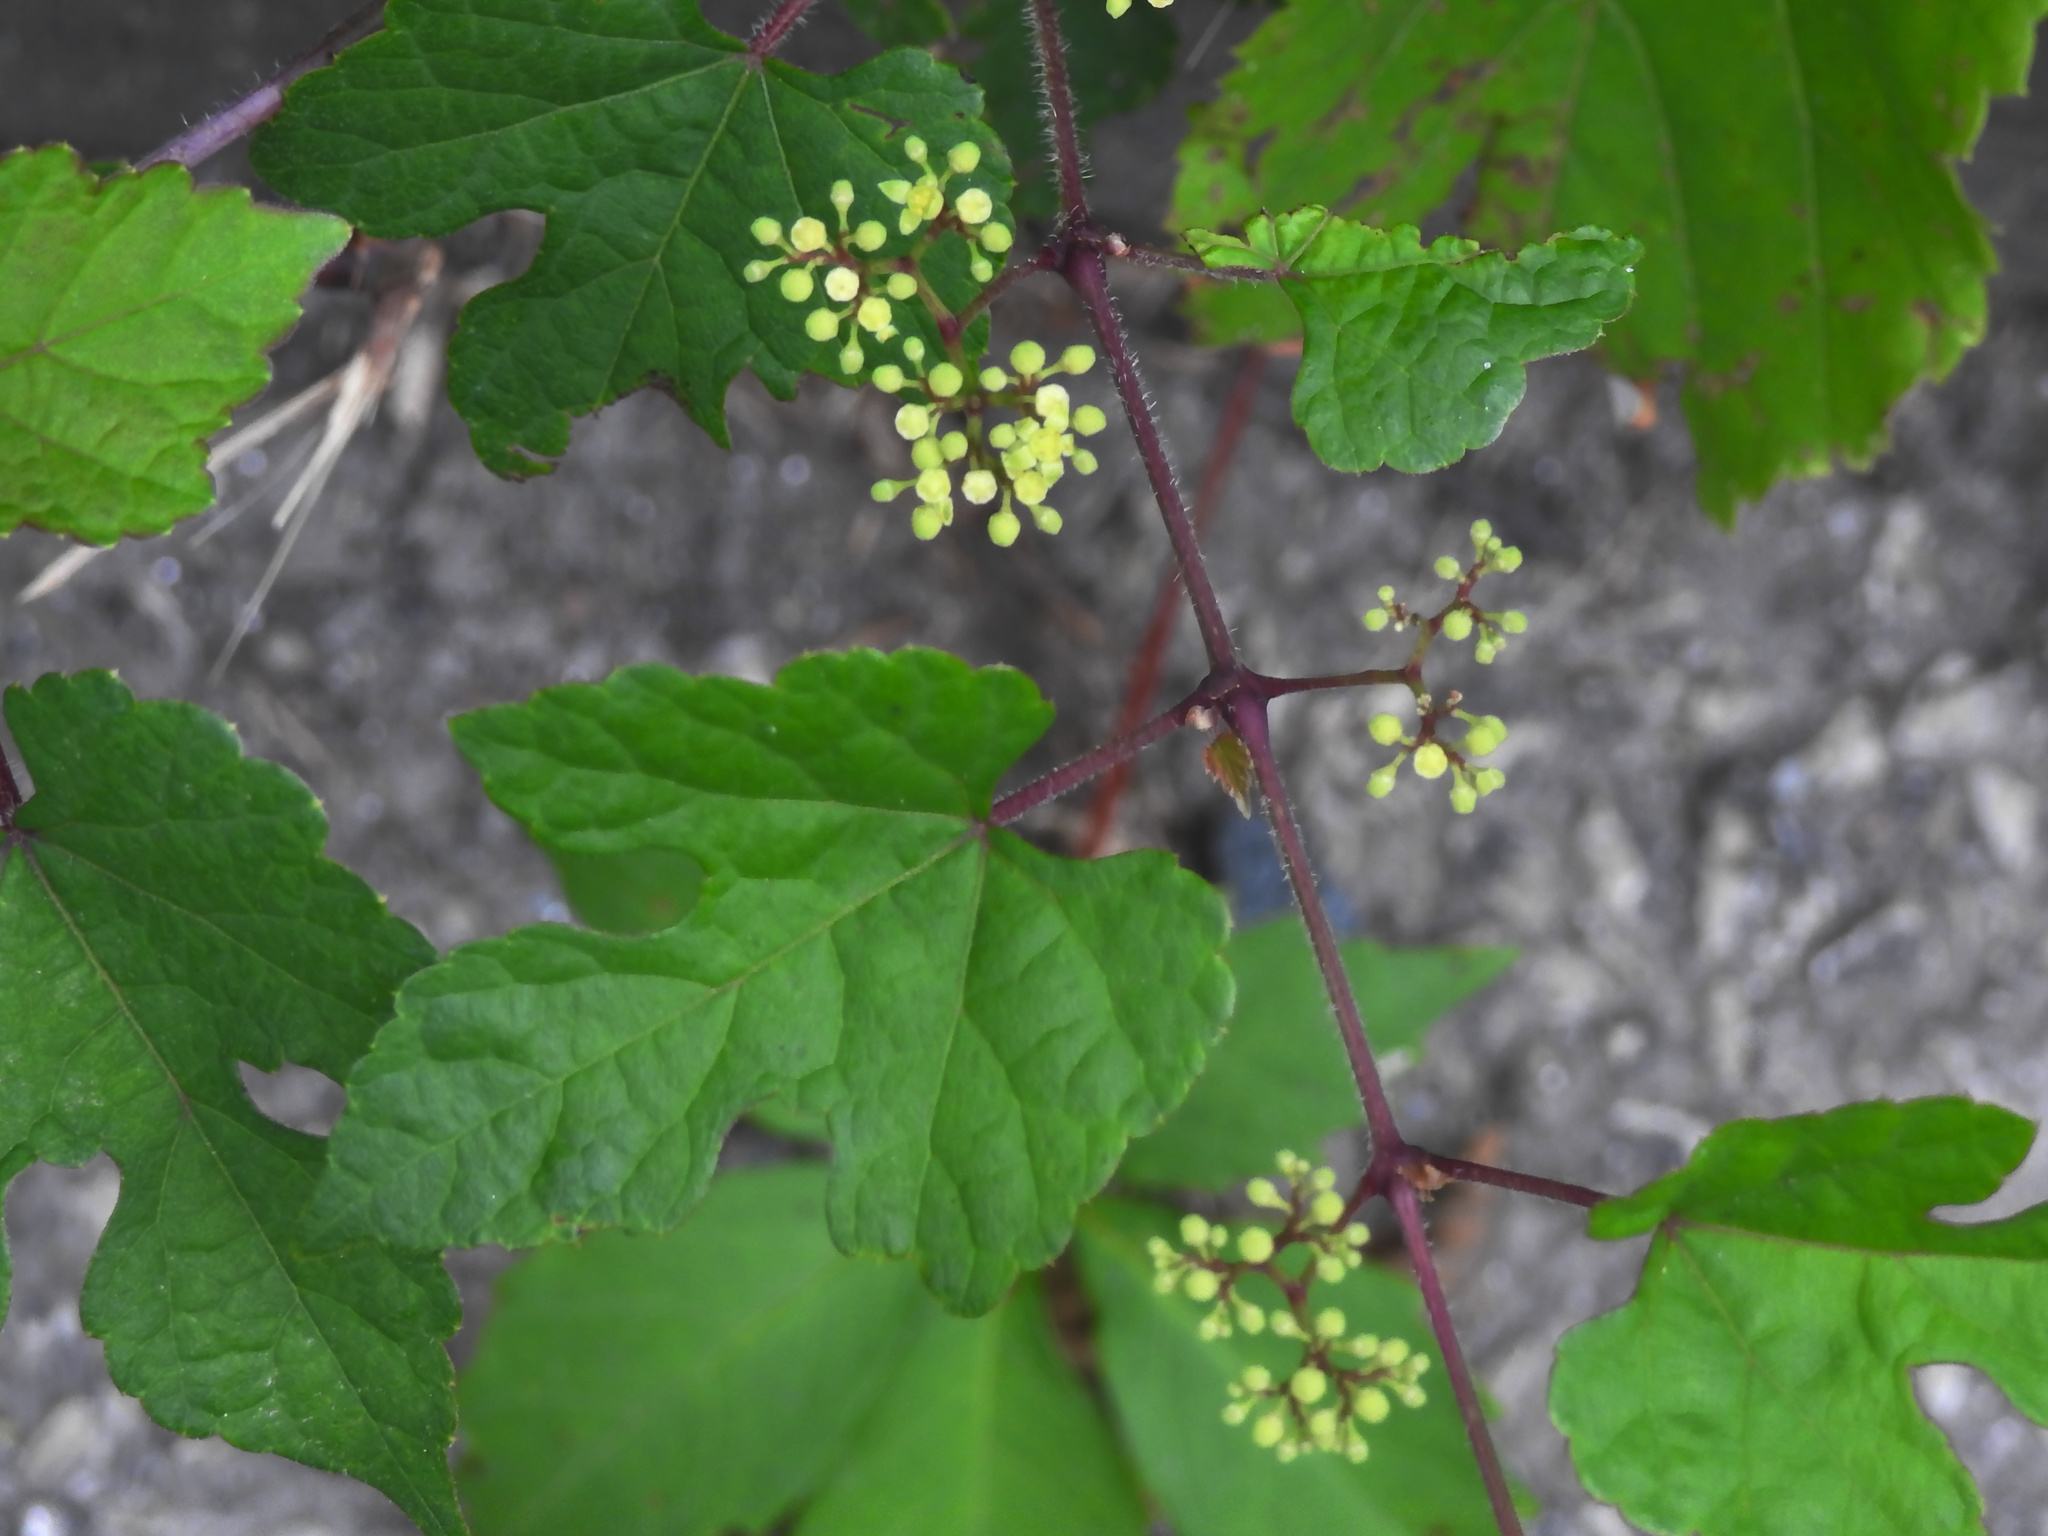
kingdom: Plantae
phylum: Tracheophyta
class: Magnoliopsida
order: Vitales
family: Vitaceae
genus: Ampelopsis
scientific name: Ampelopsis glandulosa
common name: Amur peppervine
